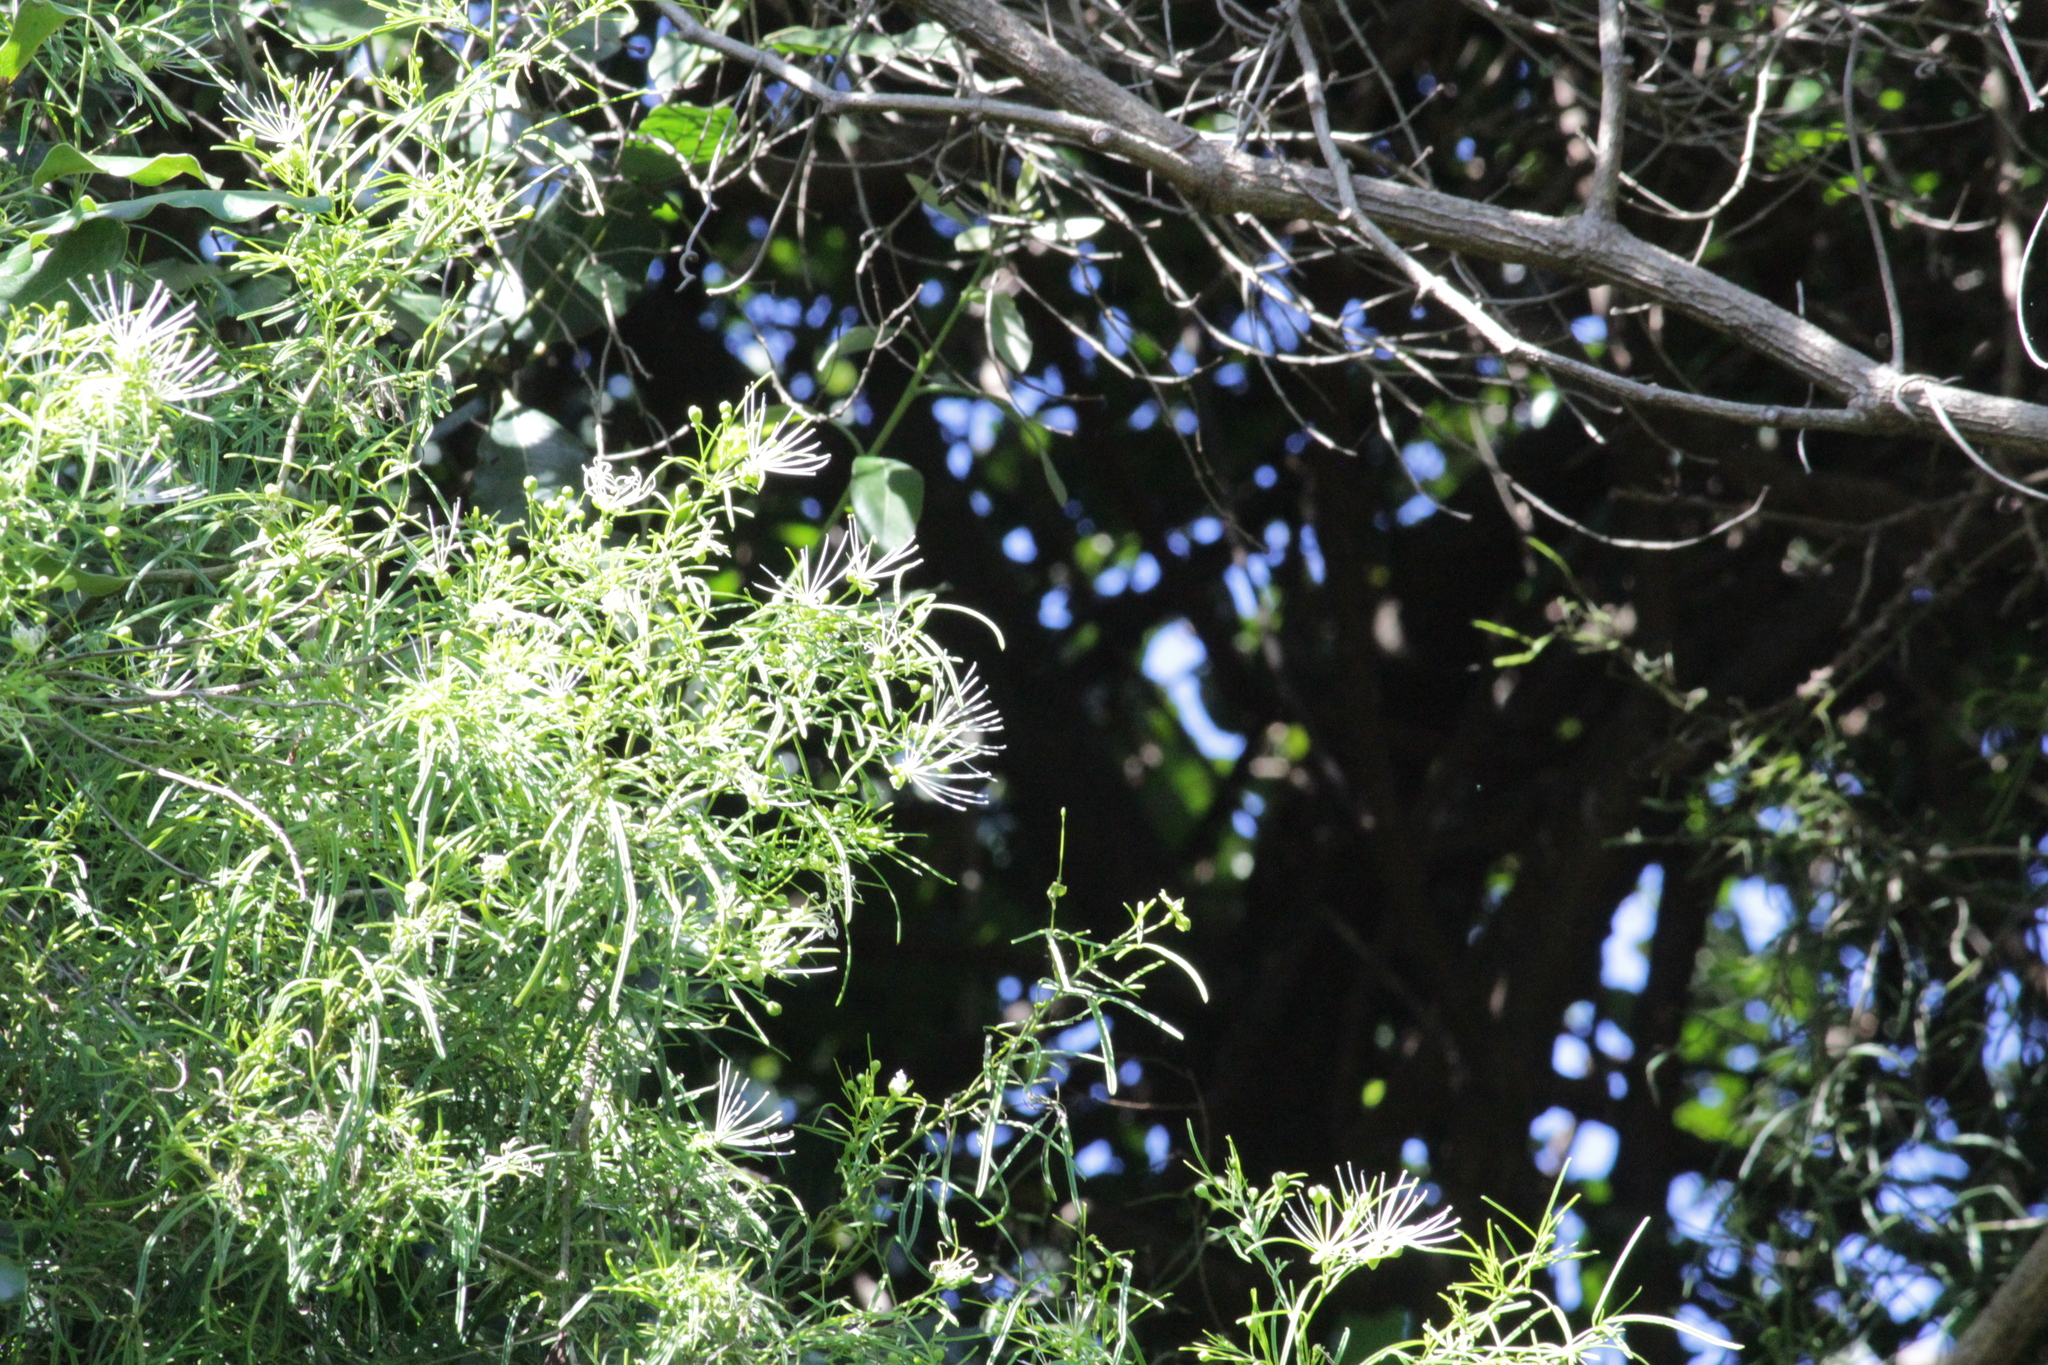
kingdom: Plantae
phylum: Tracheophyta
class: Magnoliopsida
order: Brassicales
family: Capparaceae
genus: Maerua
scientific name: Maerua rosmarinoides
